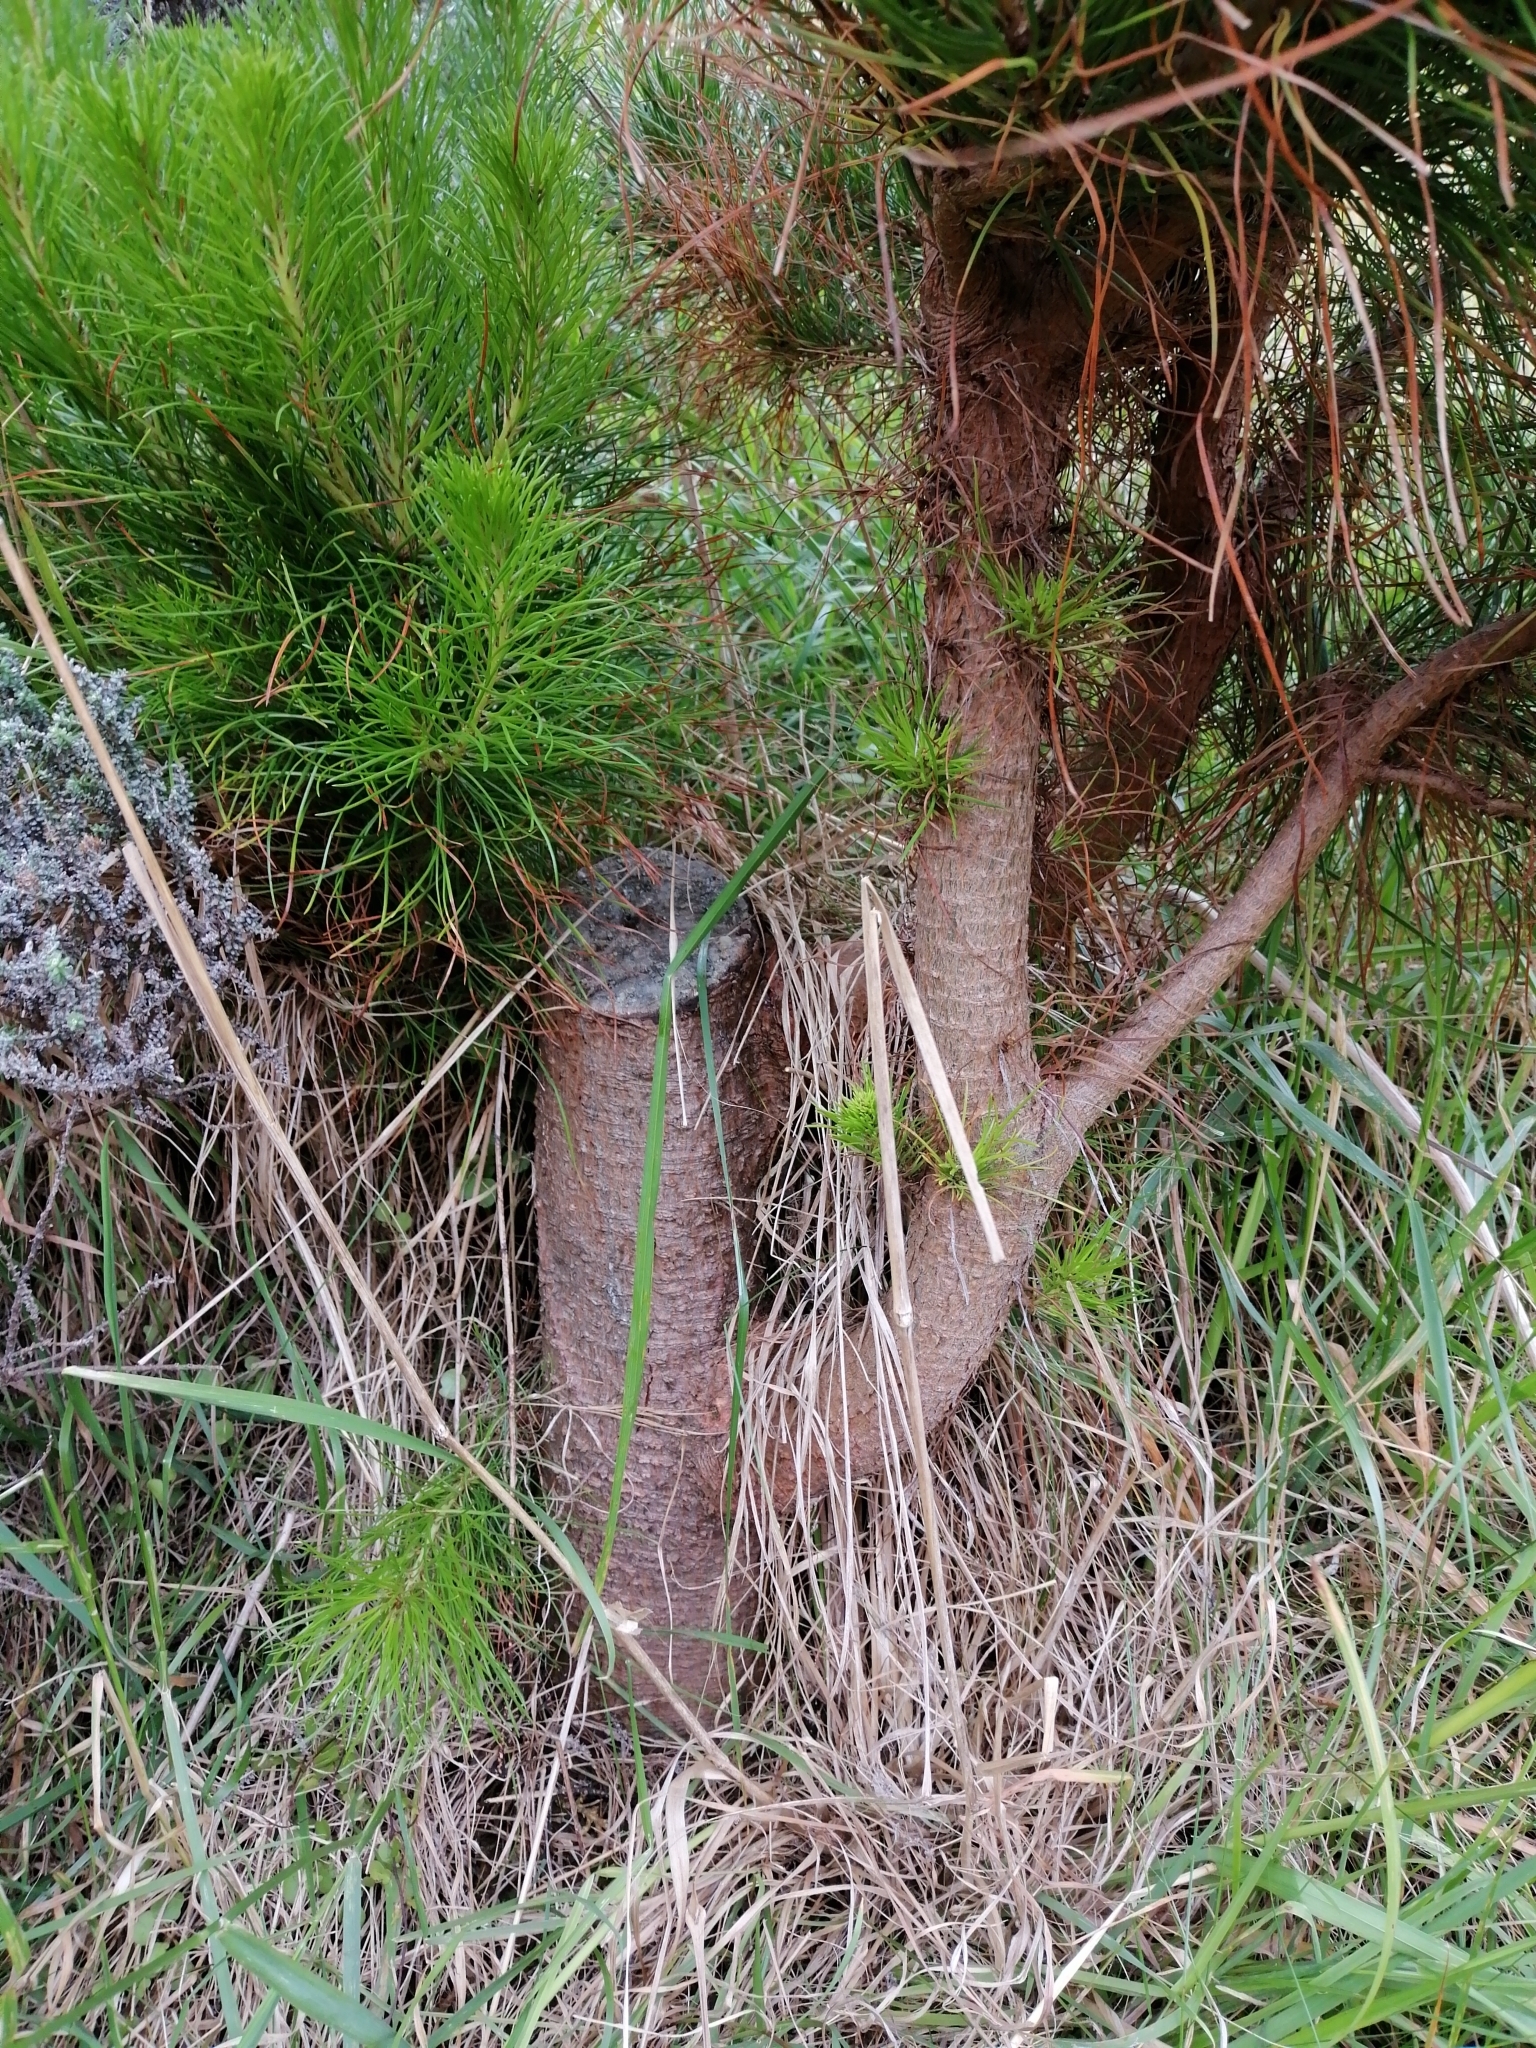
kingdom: Plantae
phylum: Tracheophyta
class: Pinopsida
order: Pinales
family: Pinaceae
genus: Pinus
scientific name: Pinus radiata
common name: Monterey pine
